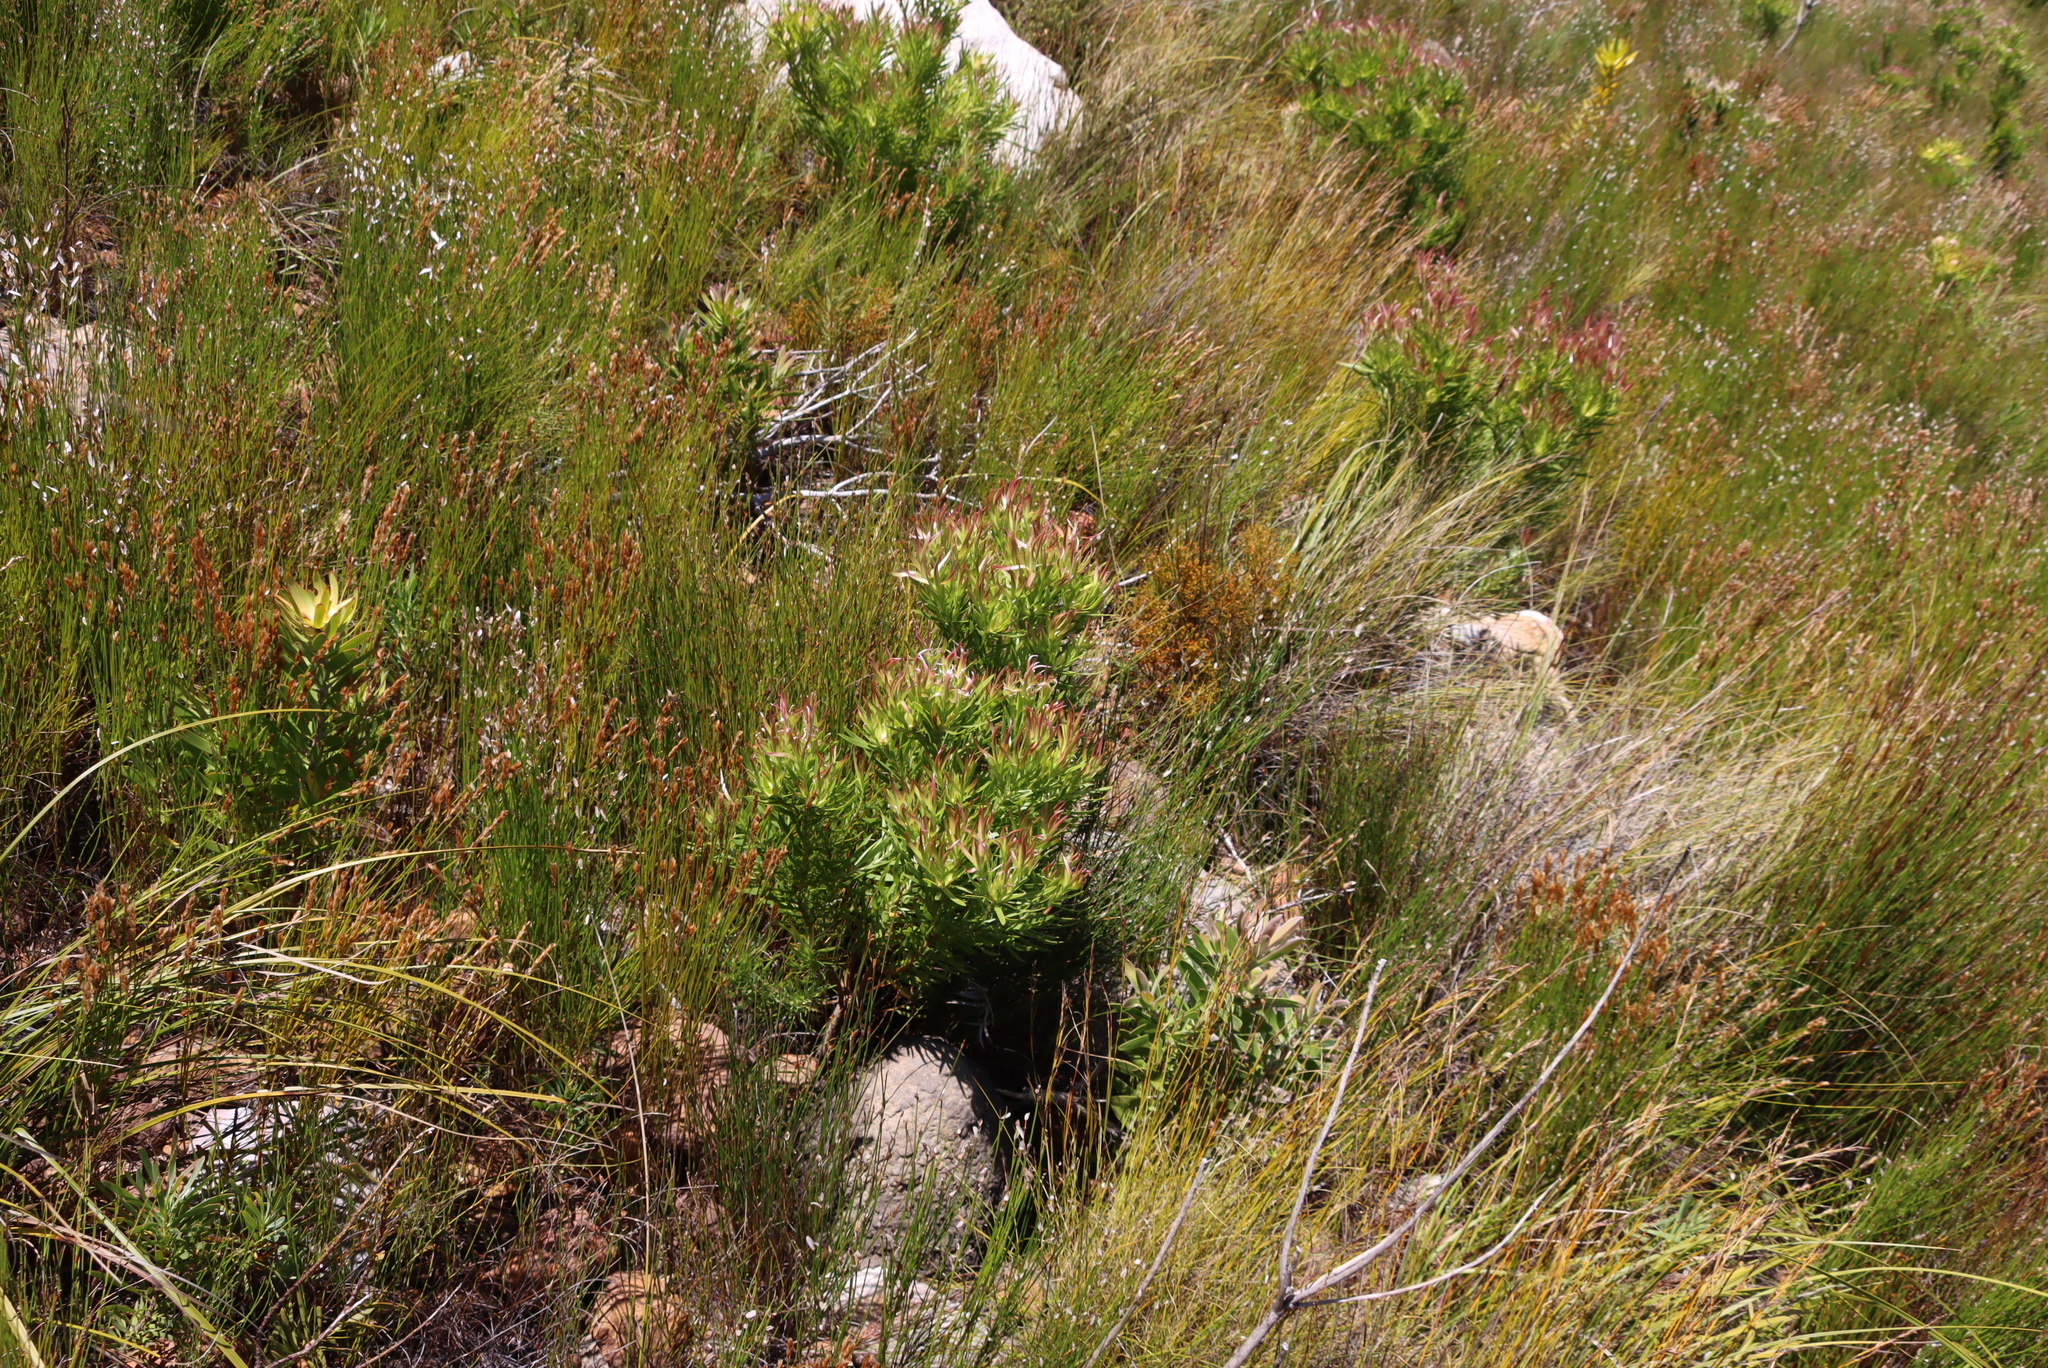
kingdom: Plantae
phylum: Tracheophyta
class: Magnoliopsida
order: Proteales
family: Proteaceae
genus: Leucadendron
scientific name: Leucadendron xanthoconus
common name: Sickle-leaf conebush
